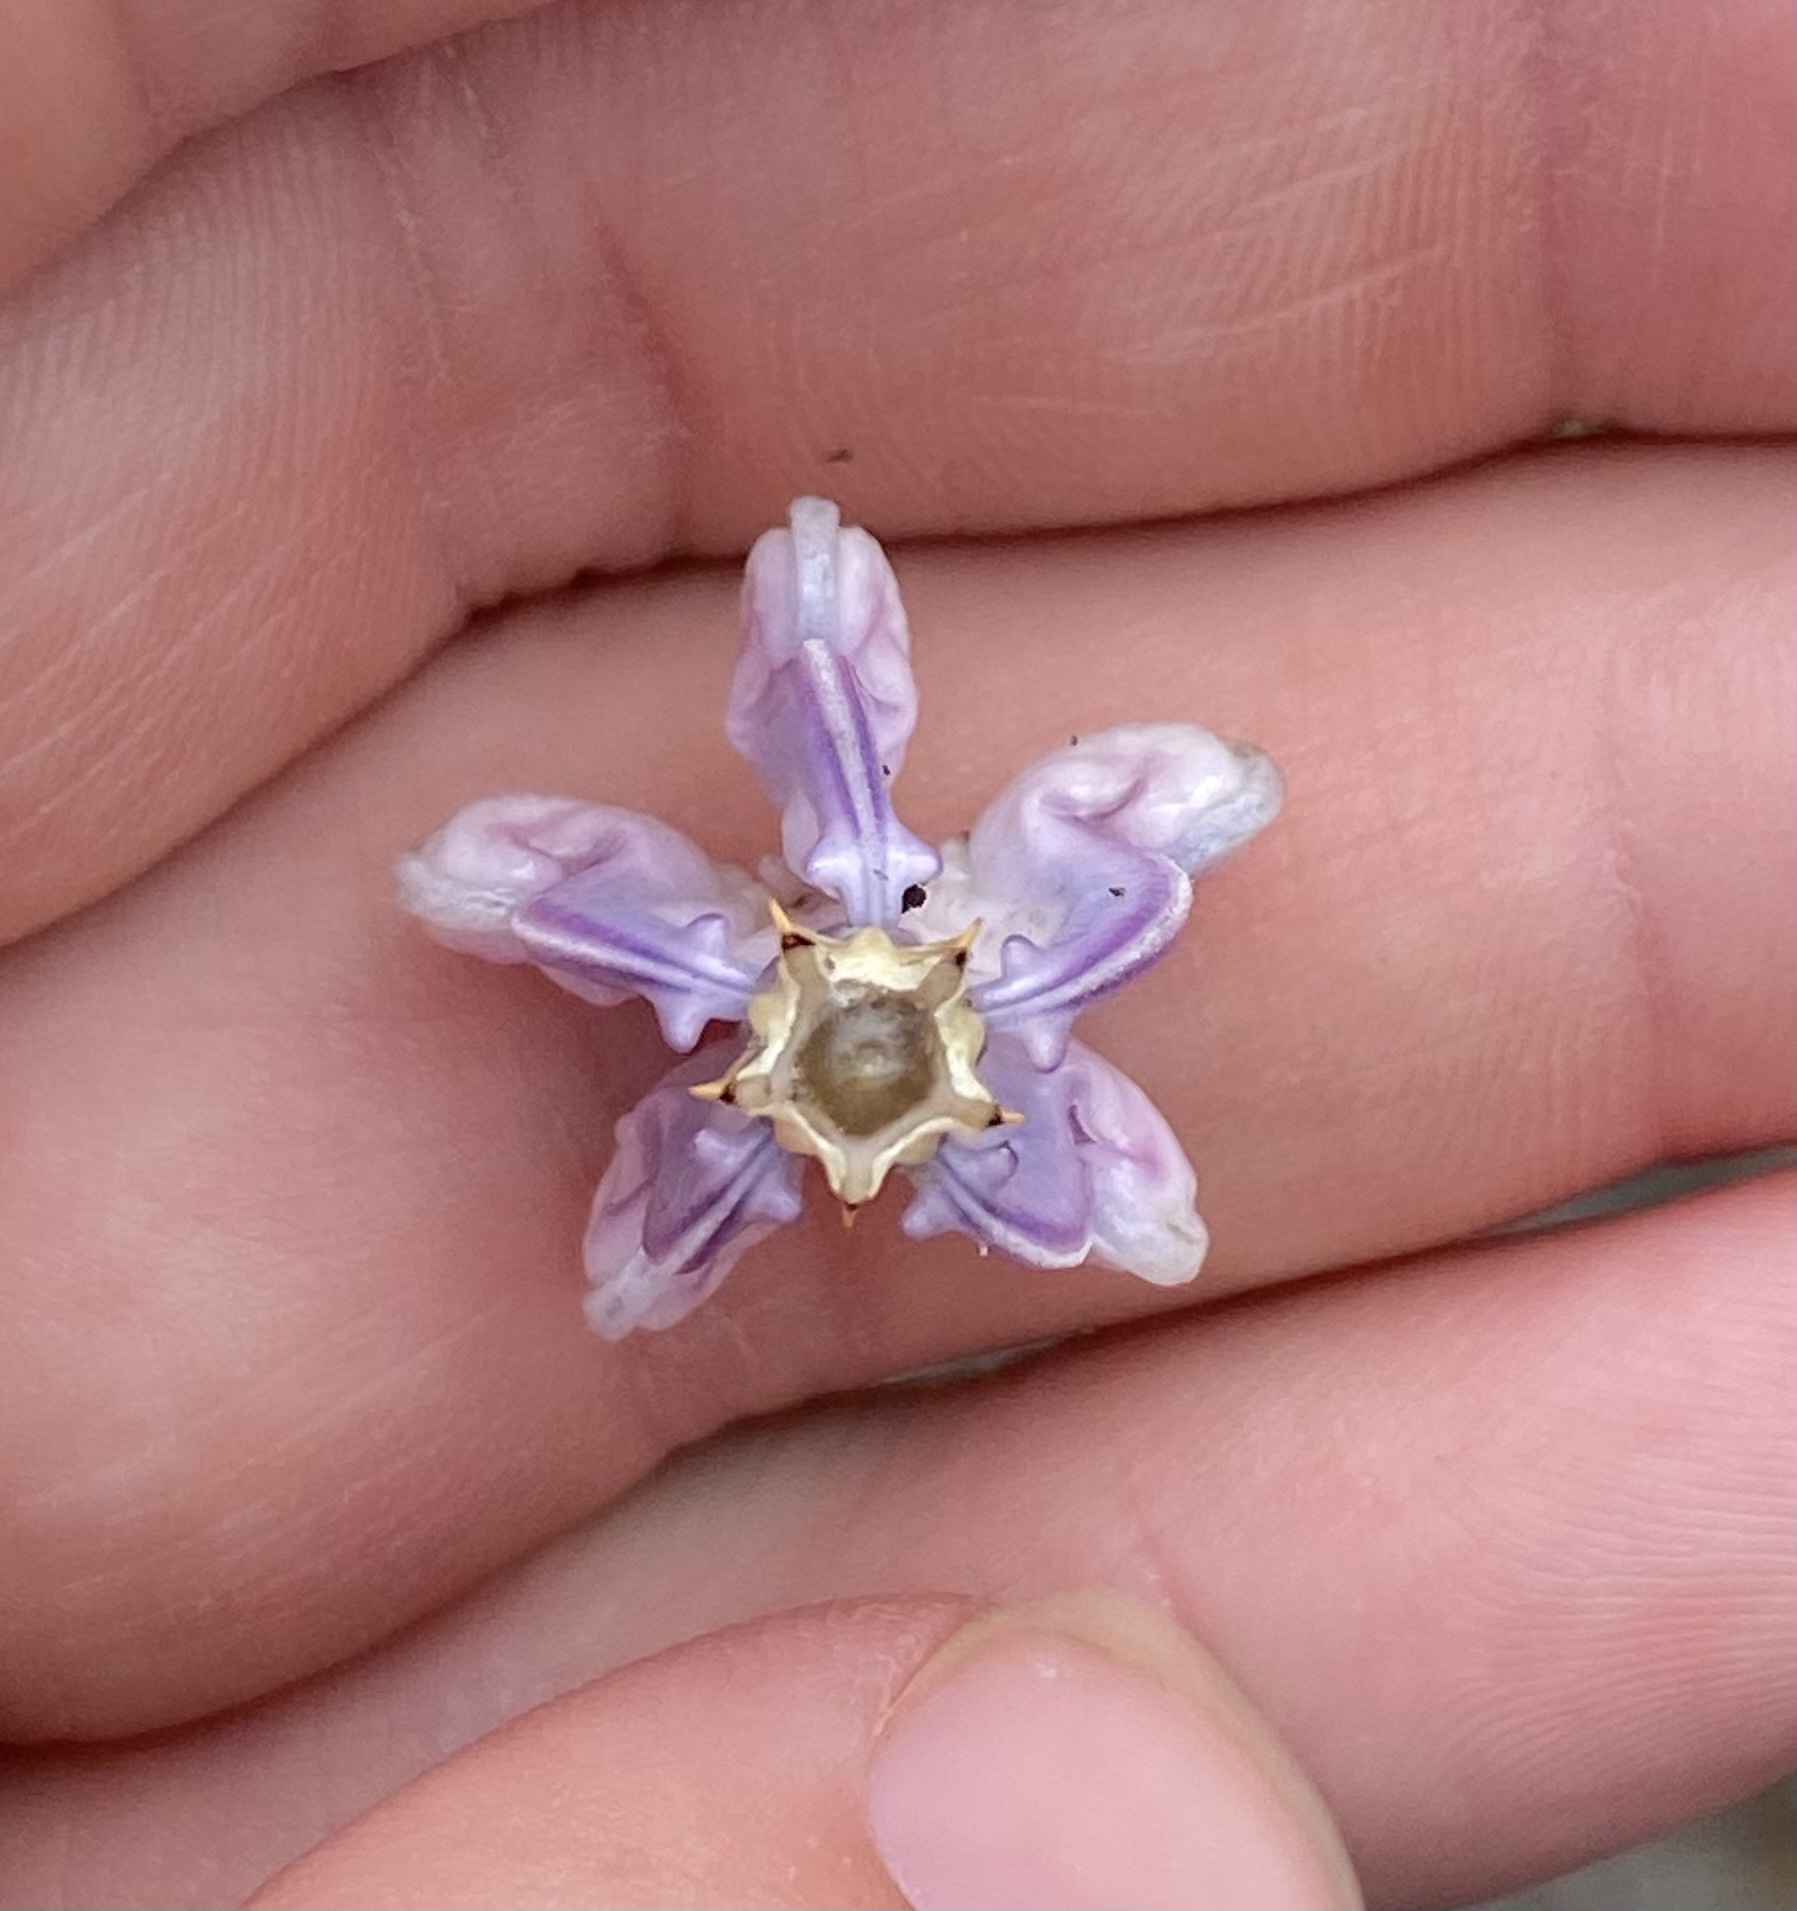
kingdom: Plantae
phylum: Tracheophyta
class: Magnoliopsida
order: Gentianales
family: Apocynaceae
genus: Calotropis
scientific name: Calotropis gigantea
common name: Crown flower
